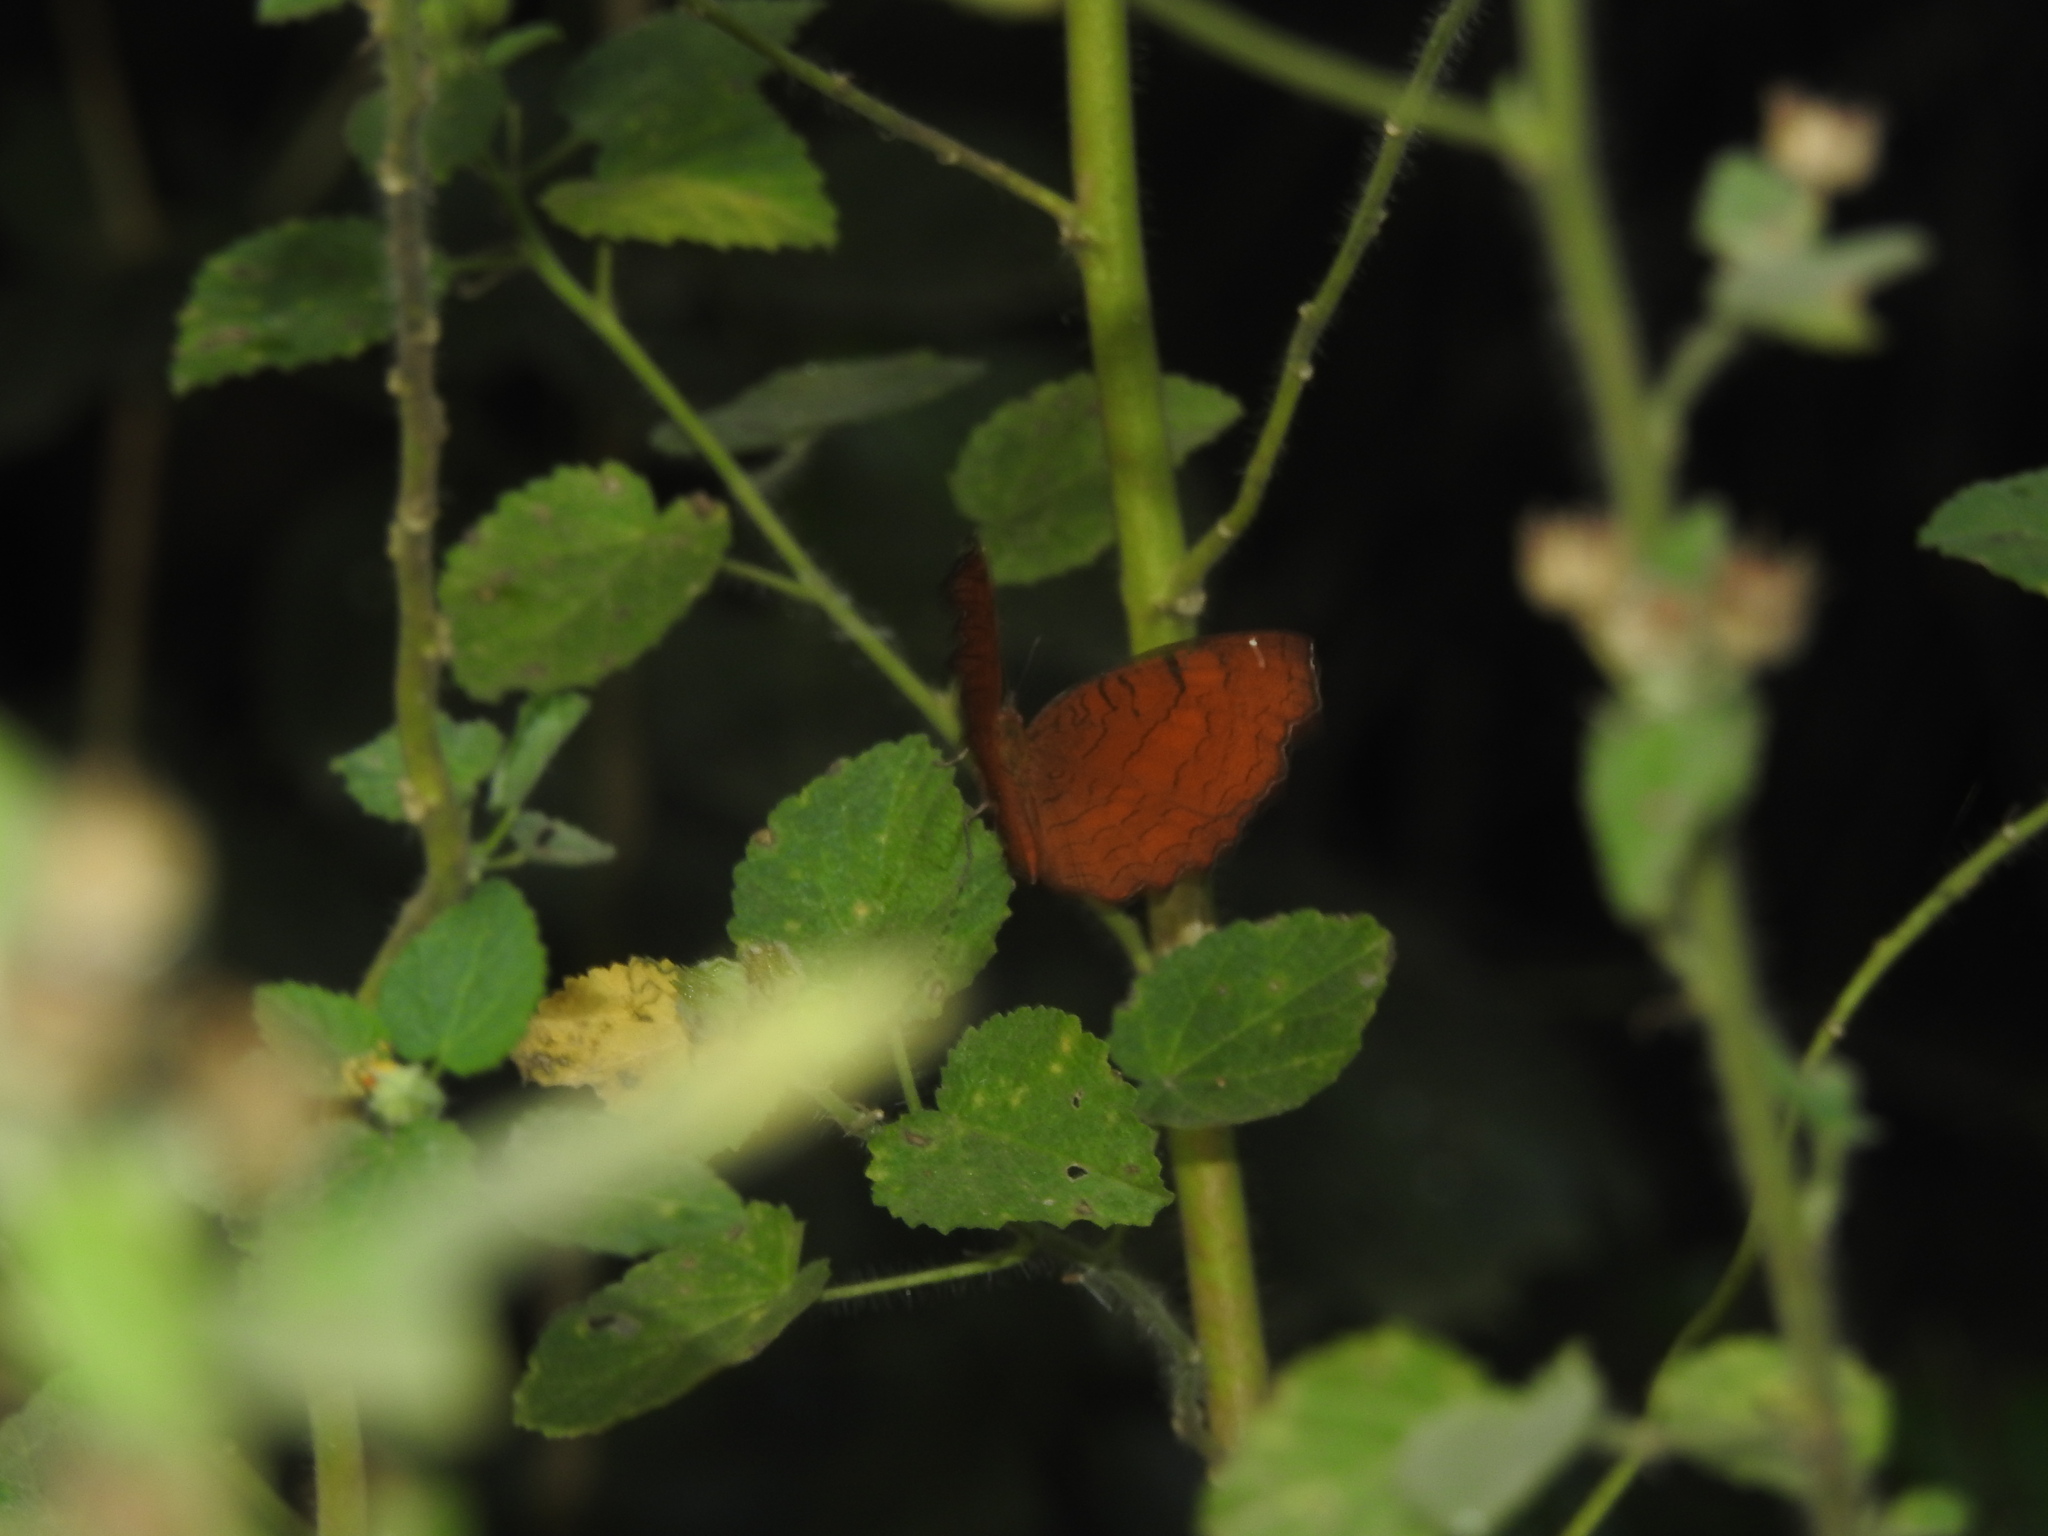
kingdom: Animalia
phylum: Arthropoda
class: Insecta
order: Lepidoptera
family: Nymphalidae
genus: Ariadne
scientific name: Ariadne ariadne
